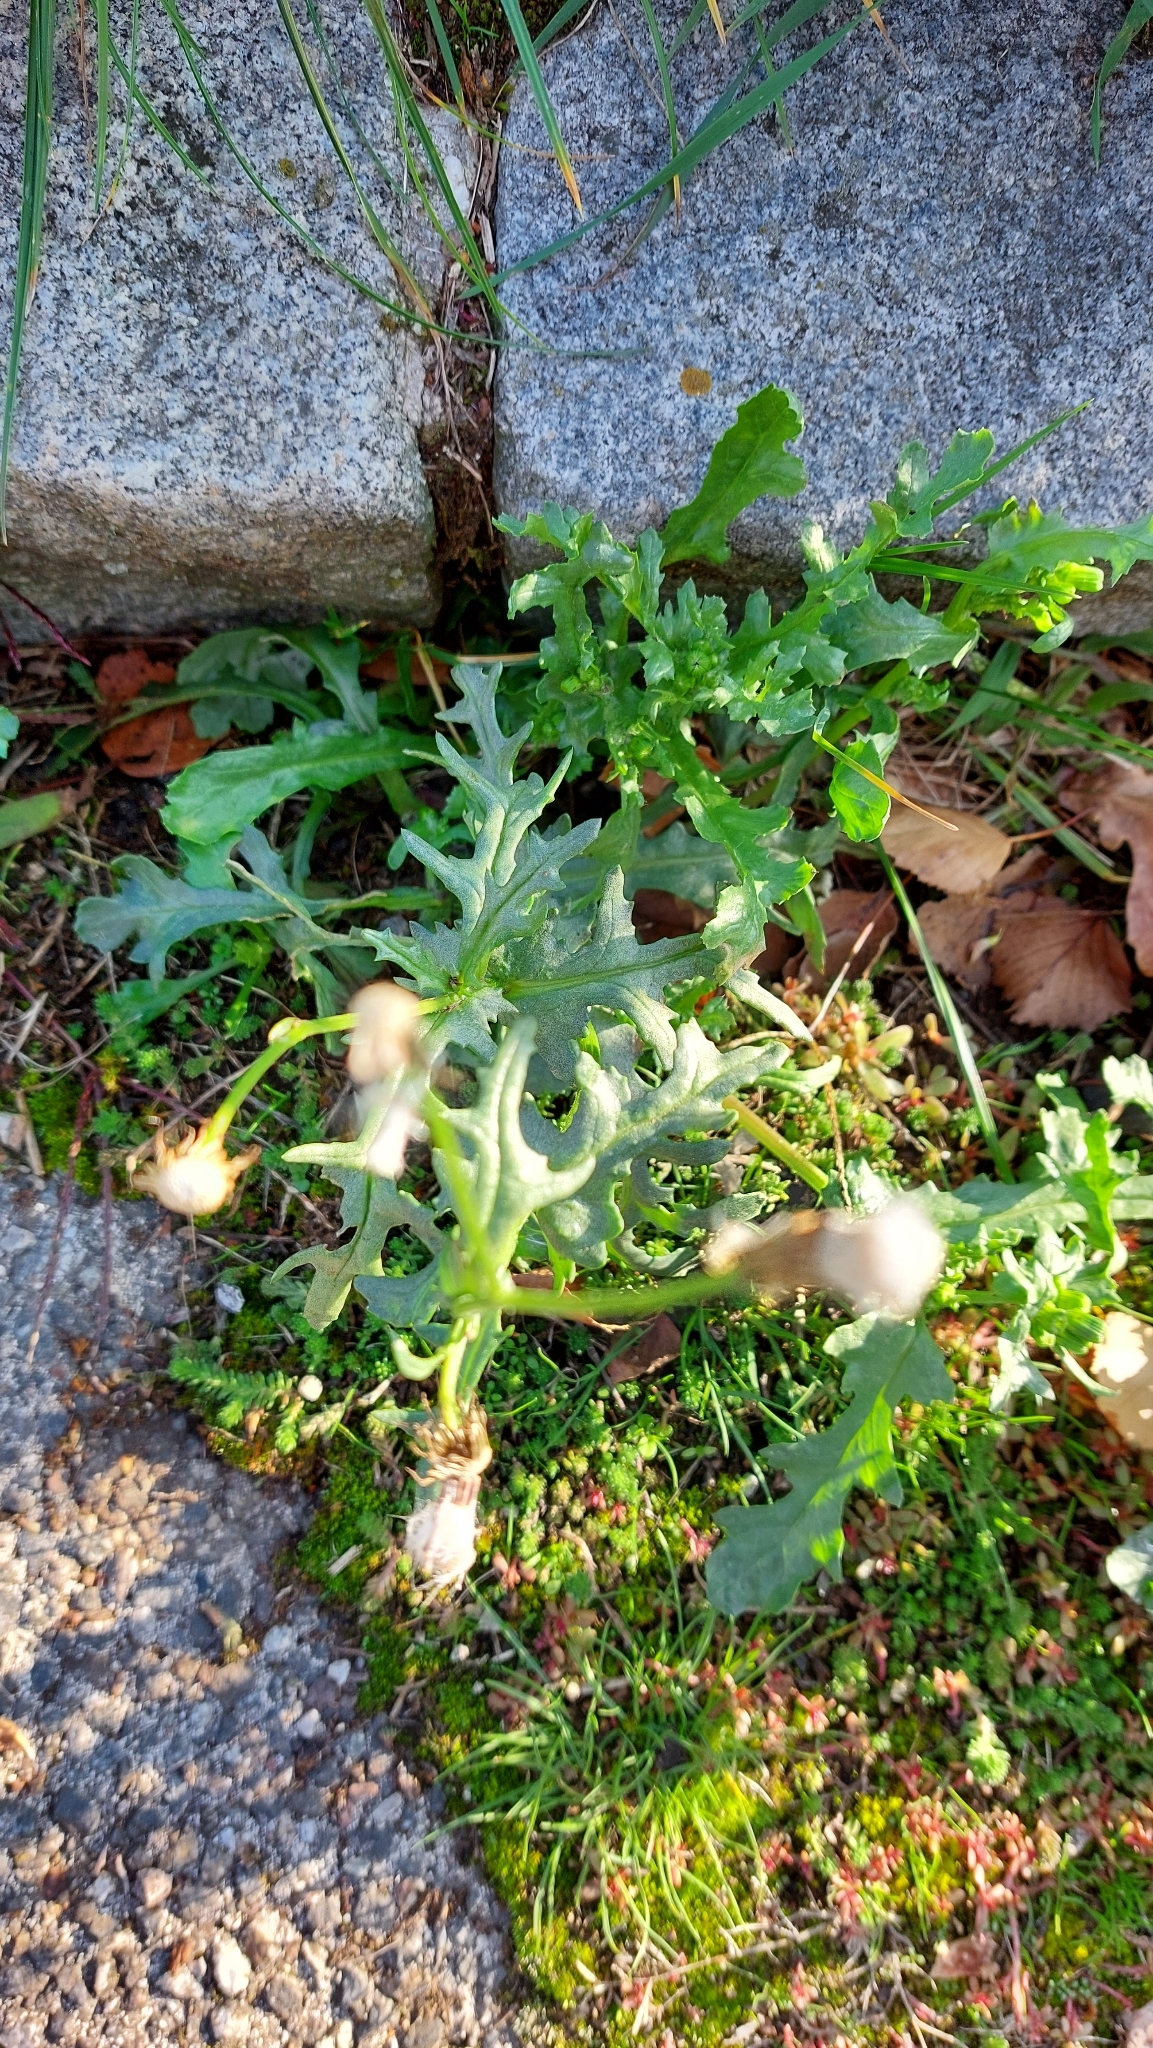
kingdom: Plantae
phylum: Tracheophyta
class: Magnoliopsida
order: Asterales
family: Asteraceae
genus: Senecio
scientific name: Senecio vulgaris
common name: Old-man-in-the-spring
